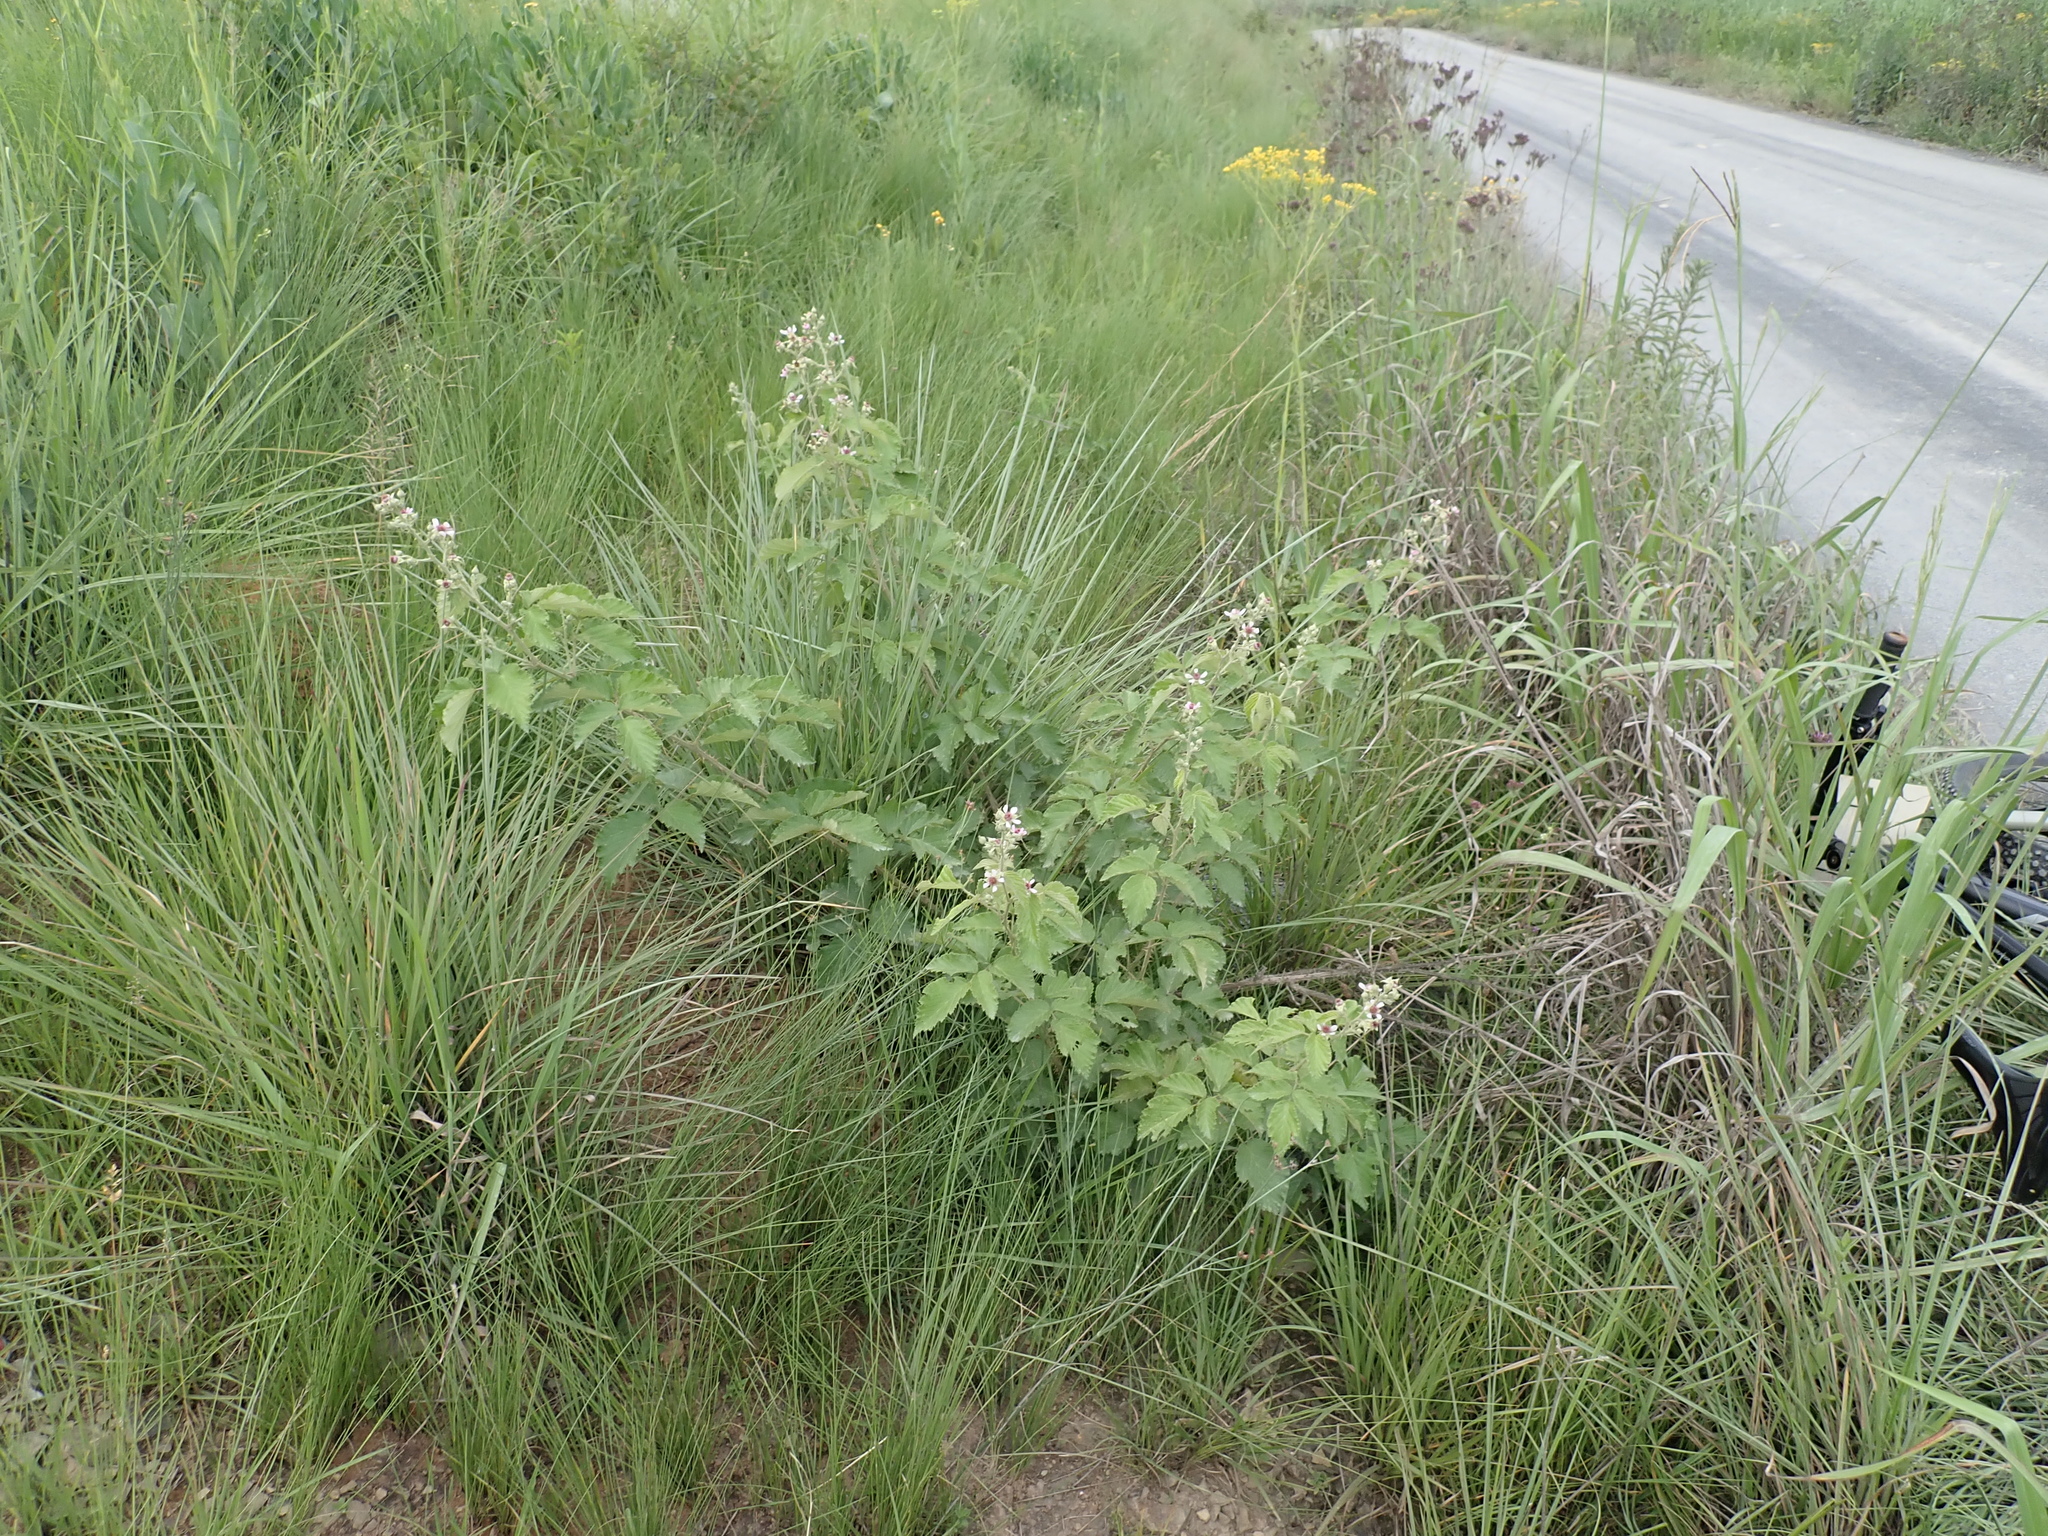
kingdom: Plantae
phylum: Tracheophyta
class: Magnoliopsida
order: Rosales
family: Rosaceae
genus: Rubus
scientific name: Rubus rigidus
